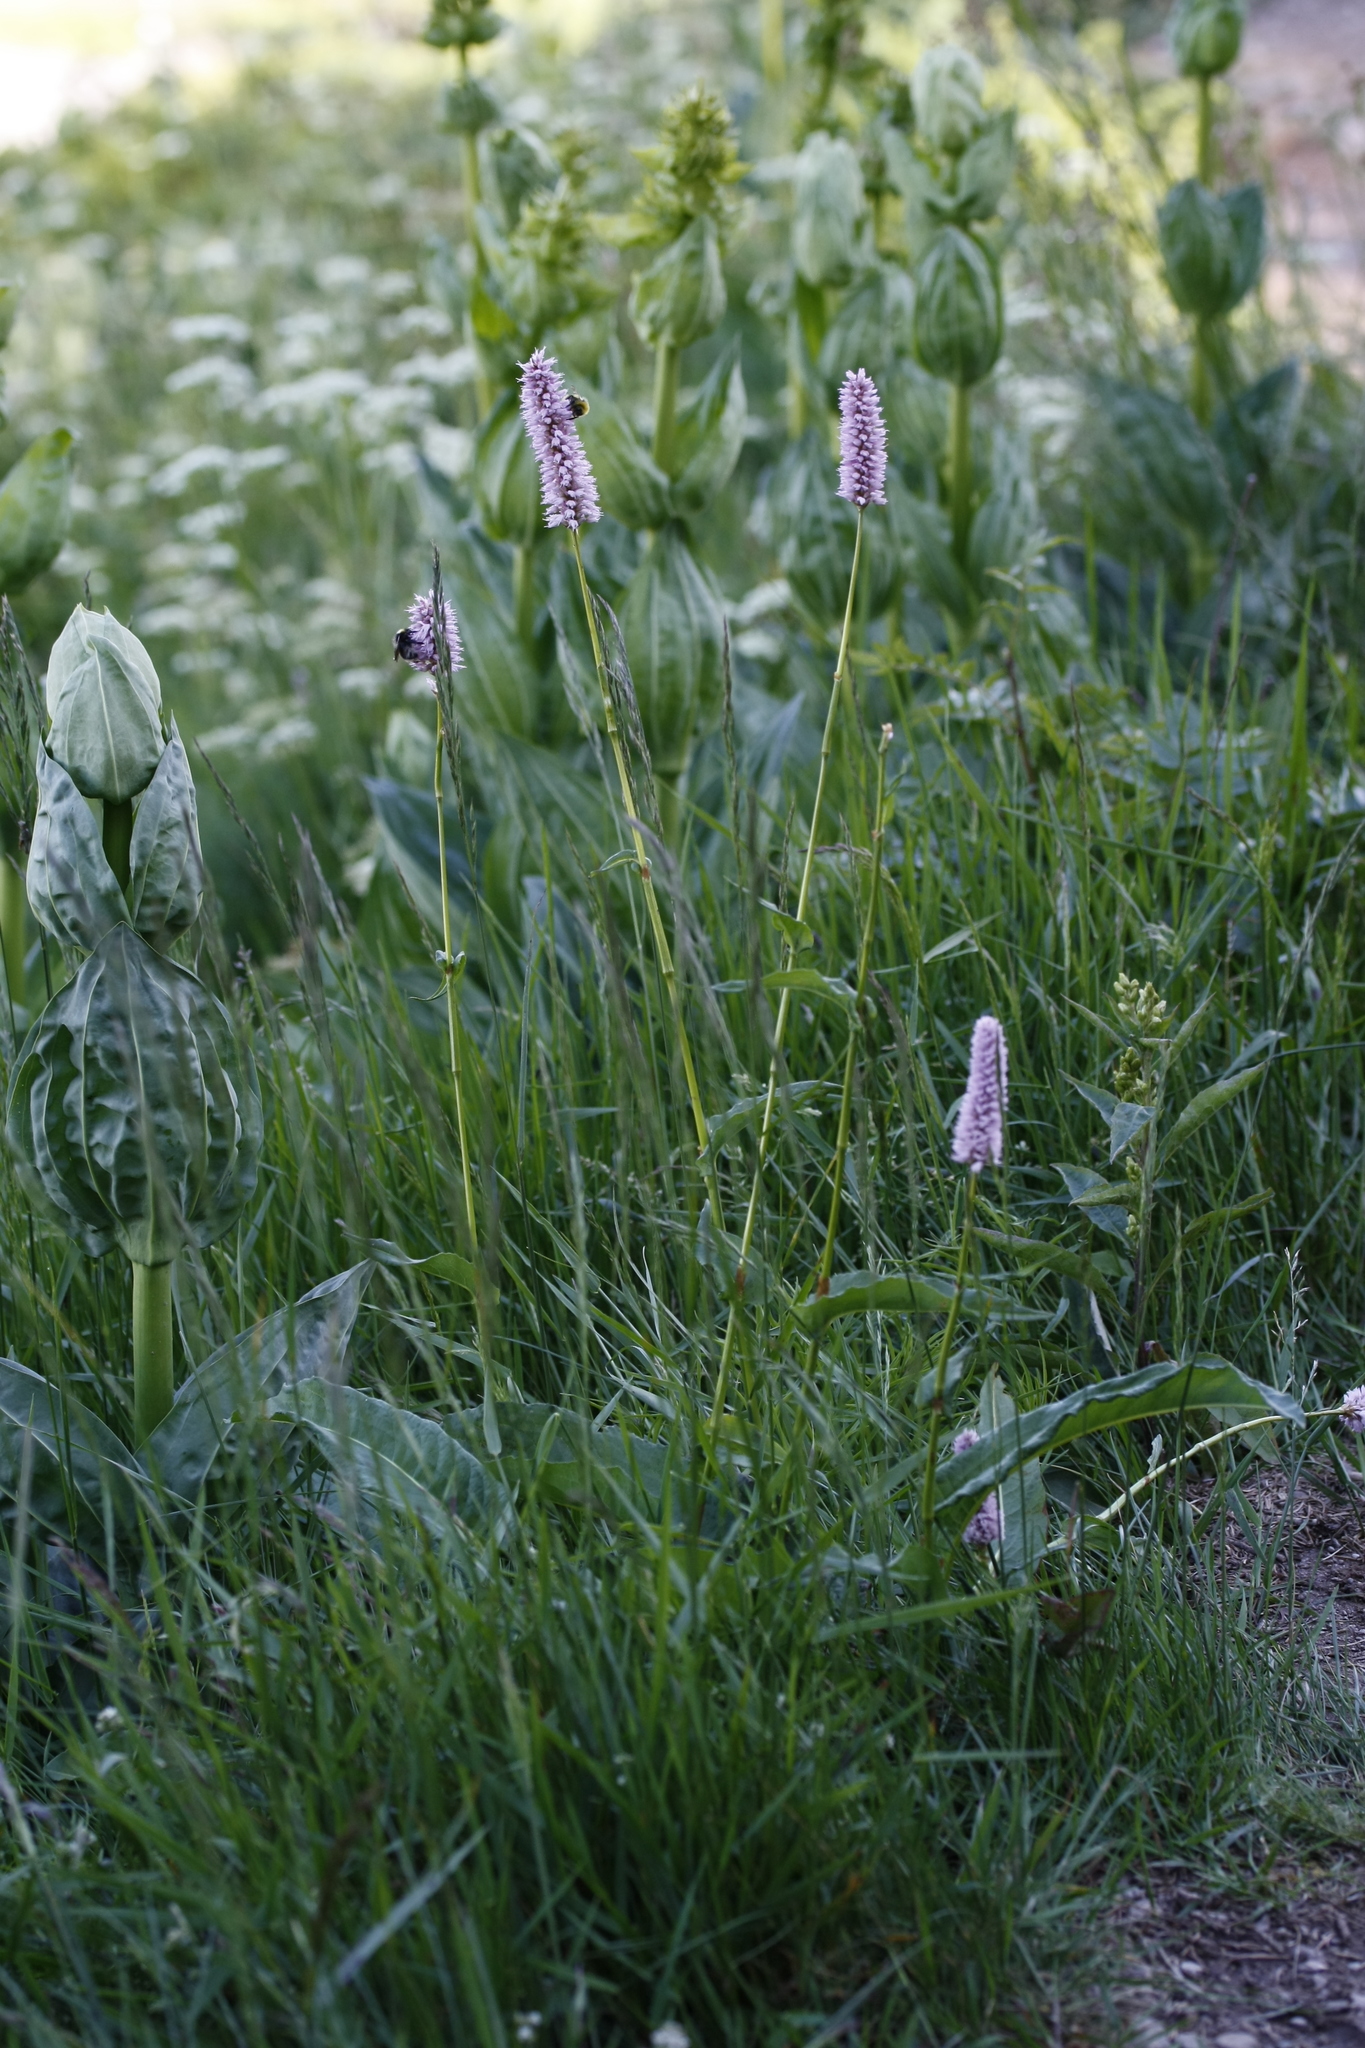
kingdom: Plantae
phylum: Tracheophyta
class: Magnoliopsida
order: Caryophyllales
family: Polygonaceae
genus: Bistorta
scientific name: Bistorta officinalis
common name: Common bistort
